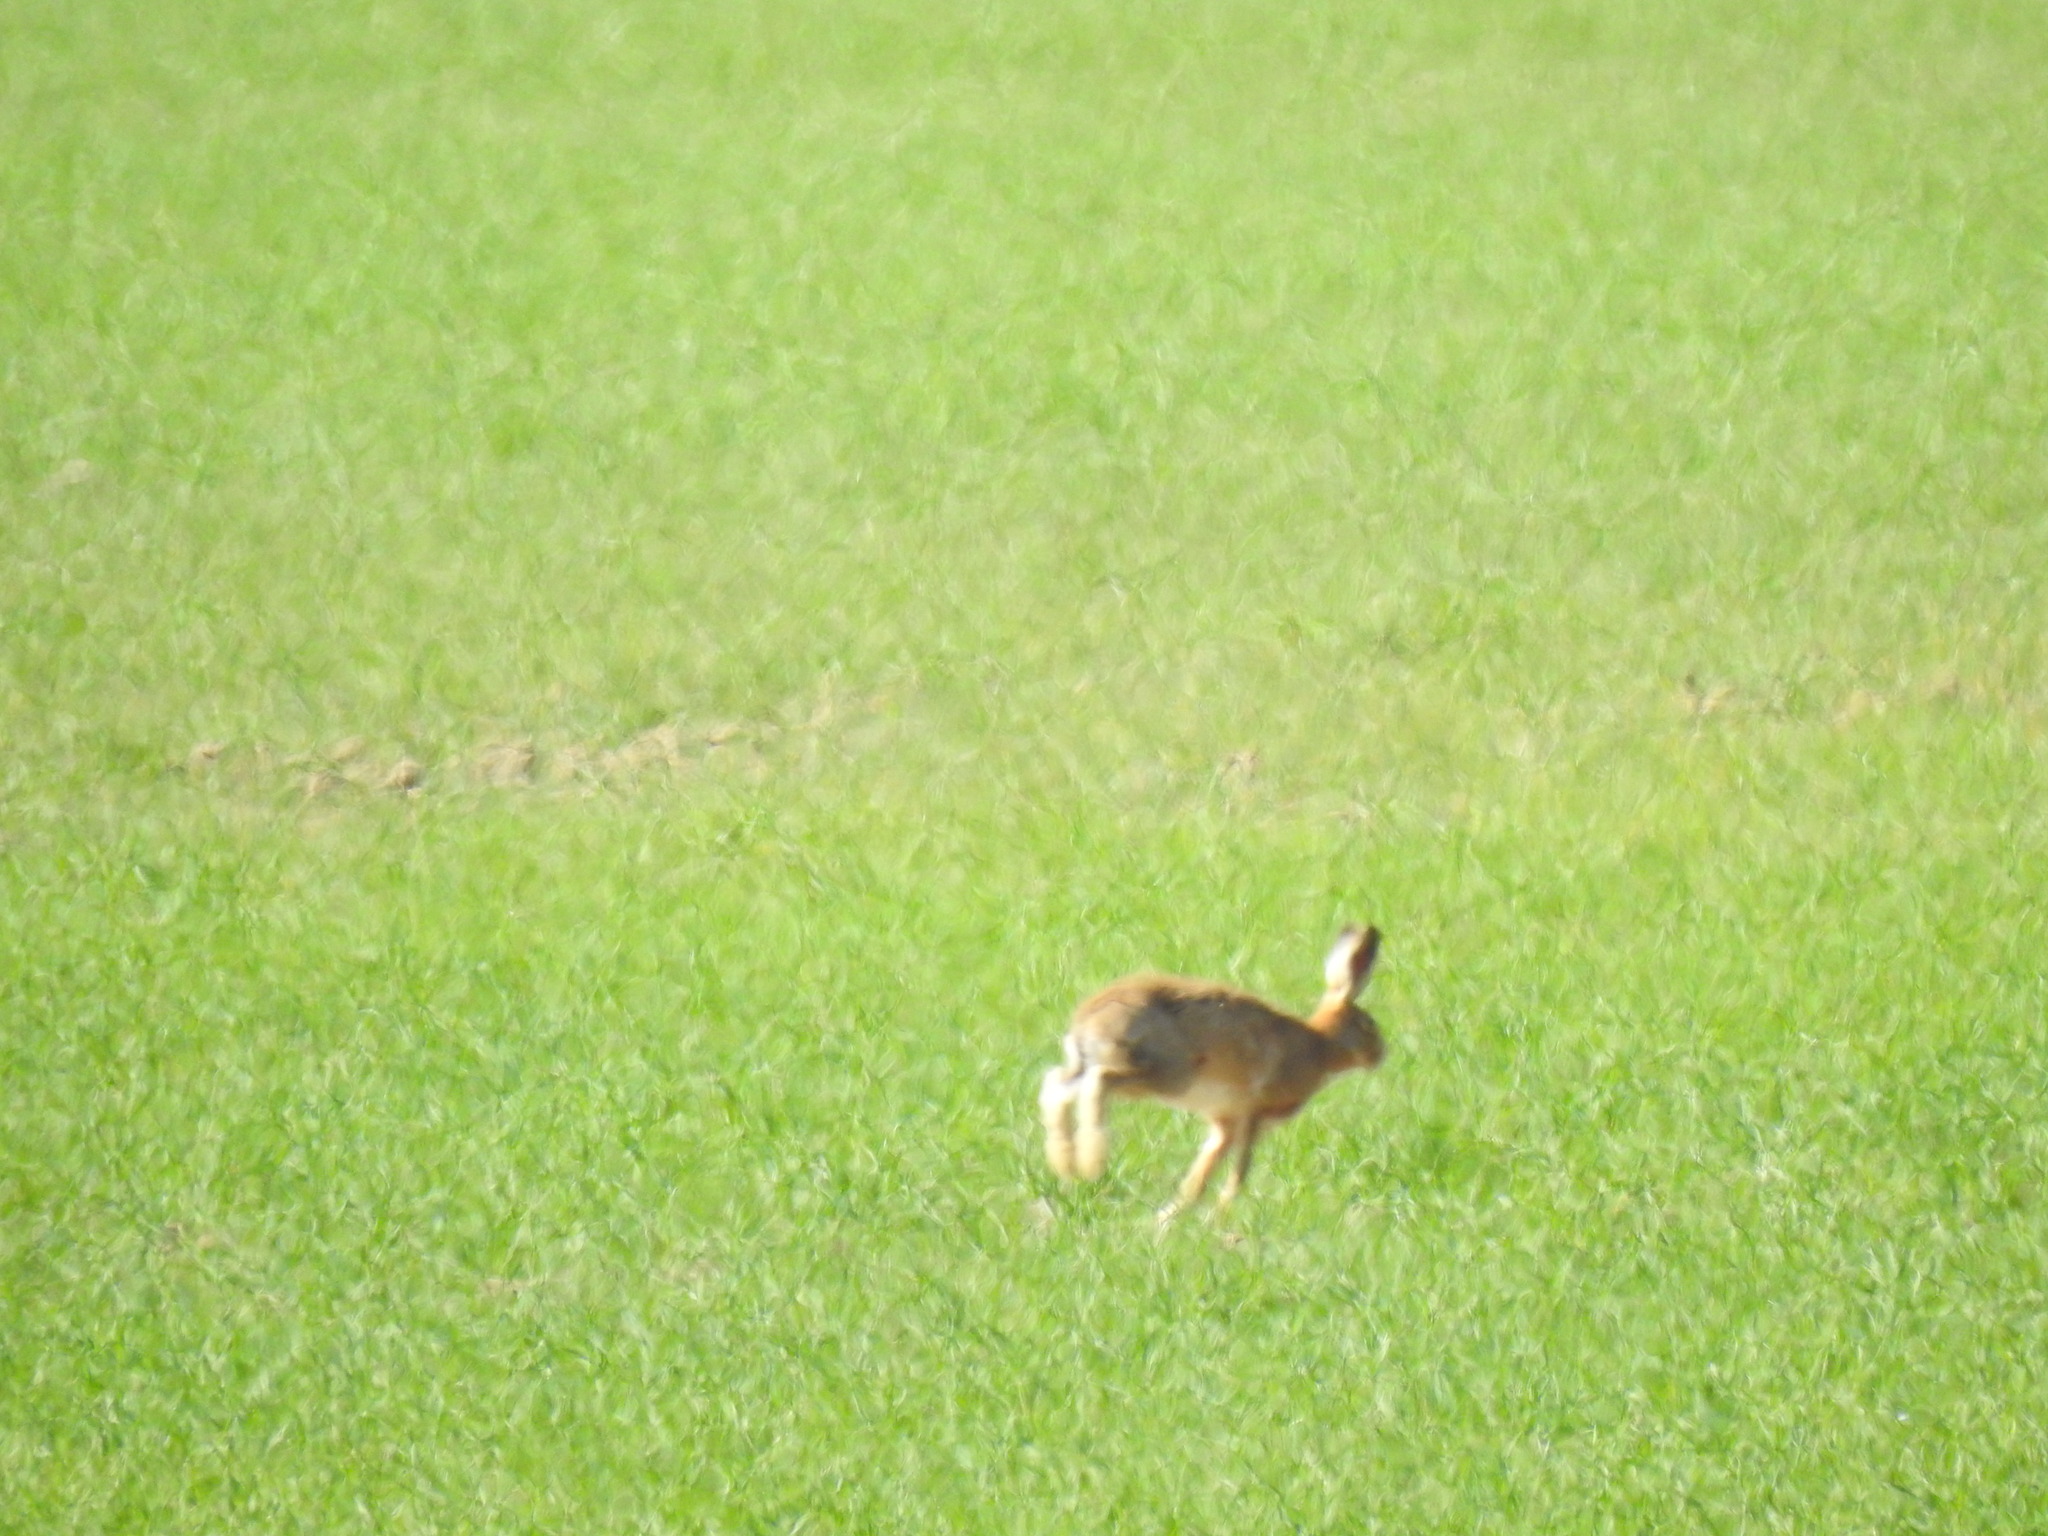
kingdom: Animalia
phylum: Chordata
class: Mammalia
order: Lagomorpha
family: Leporidae
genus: Lepus
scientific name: Lepus europaeus
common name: European hare
